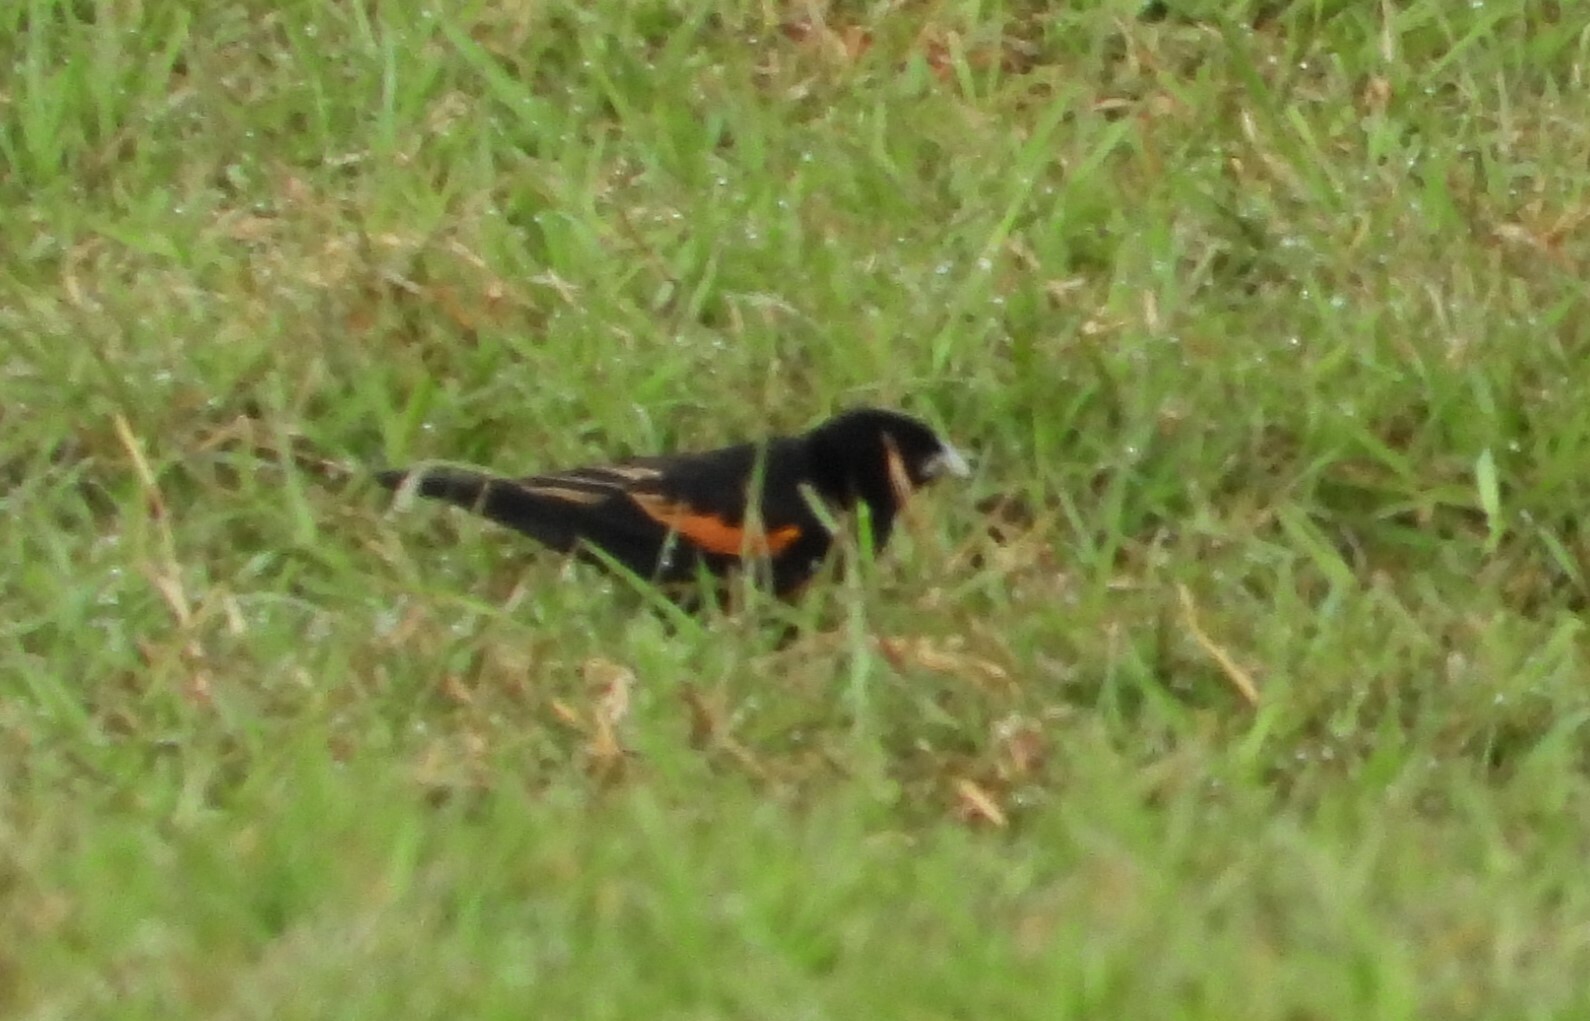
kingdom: Animalia
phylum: Chordata
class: Aves
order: Passeriformes
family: Ploceidae
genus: Euplectes
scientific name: Euplectes axillaris
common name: Fan-tailed widowbird
